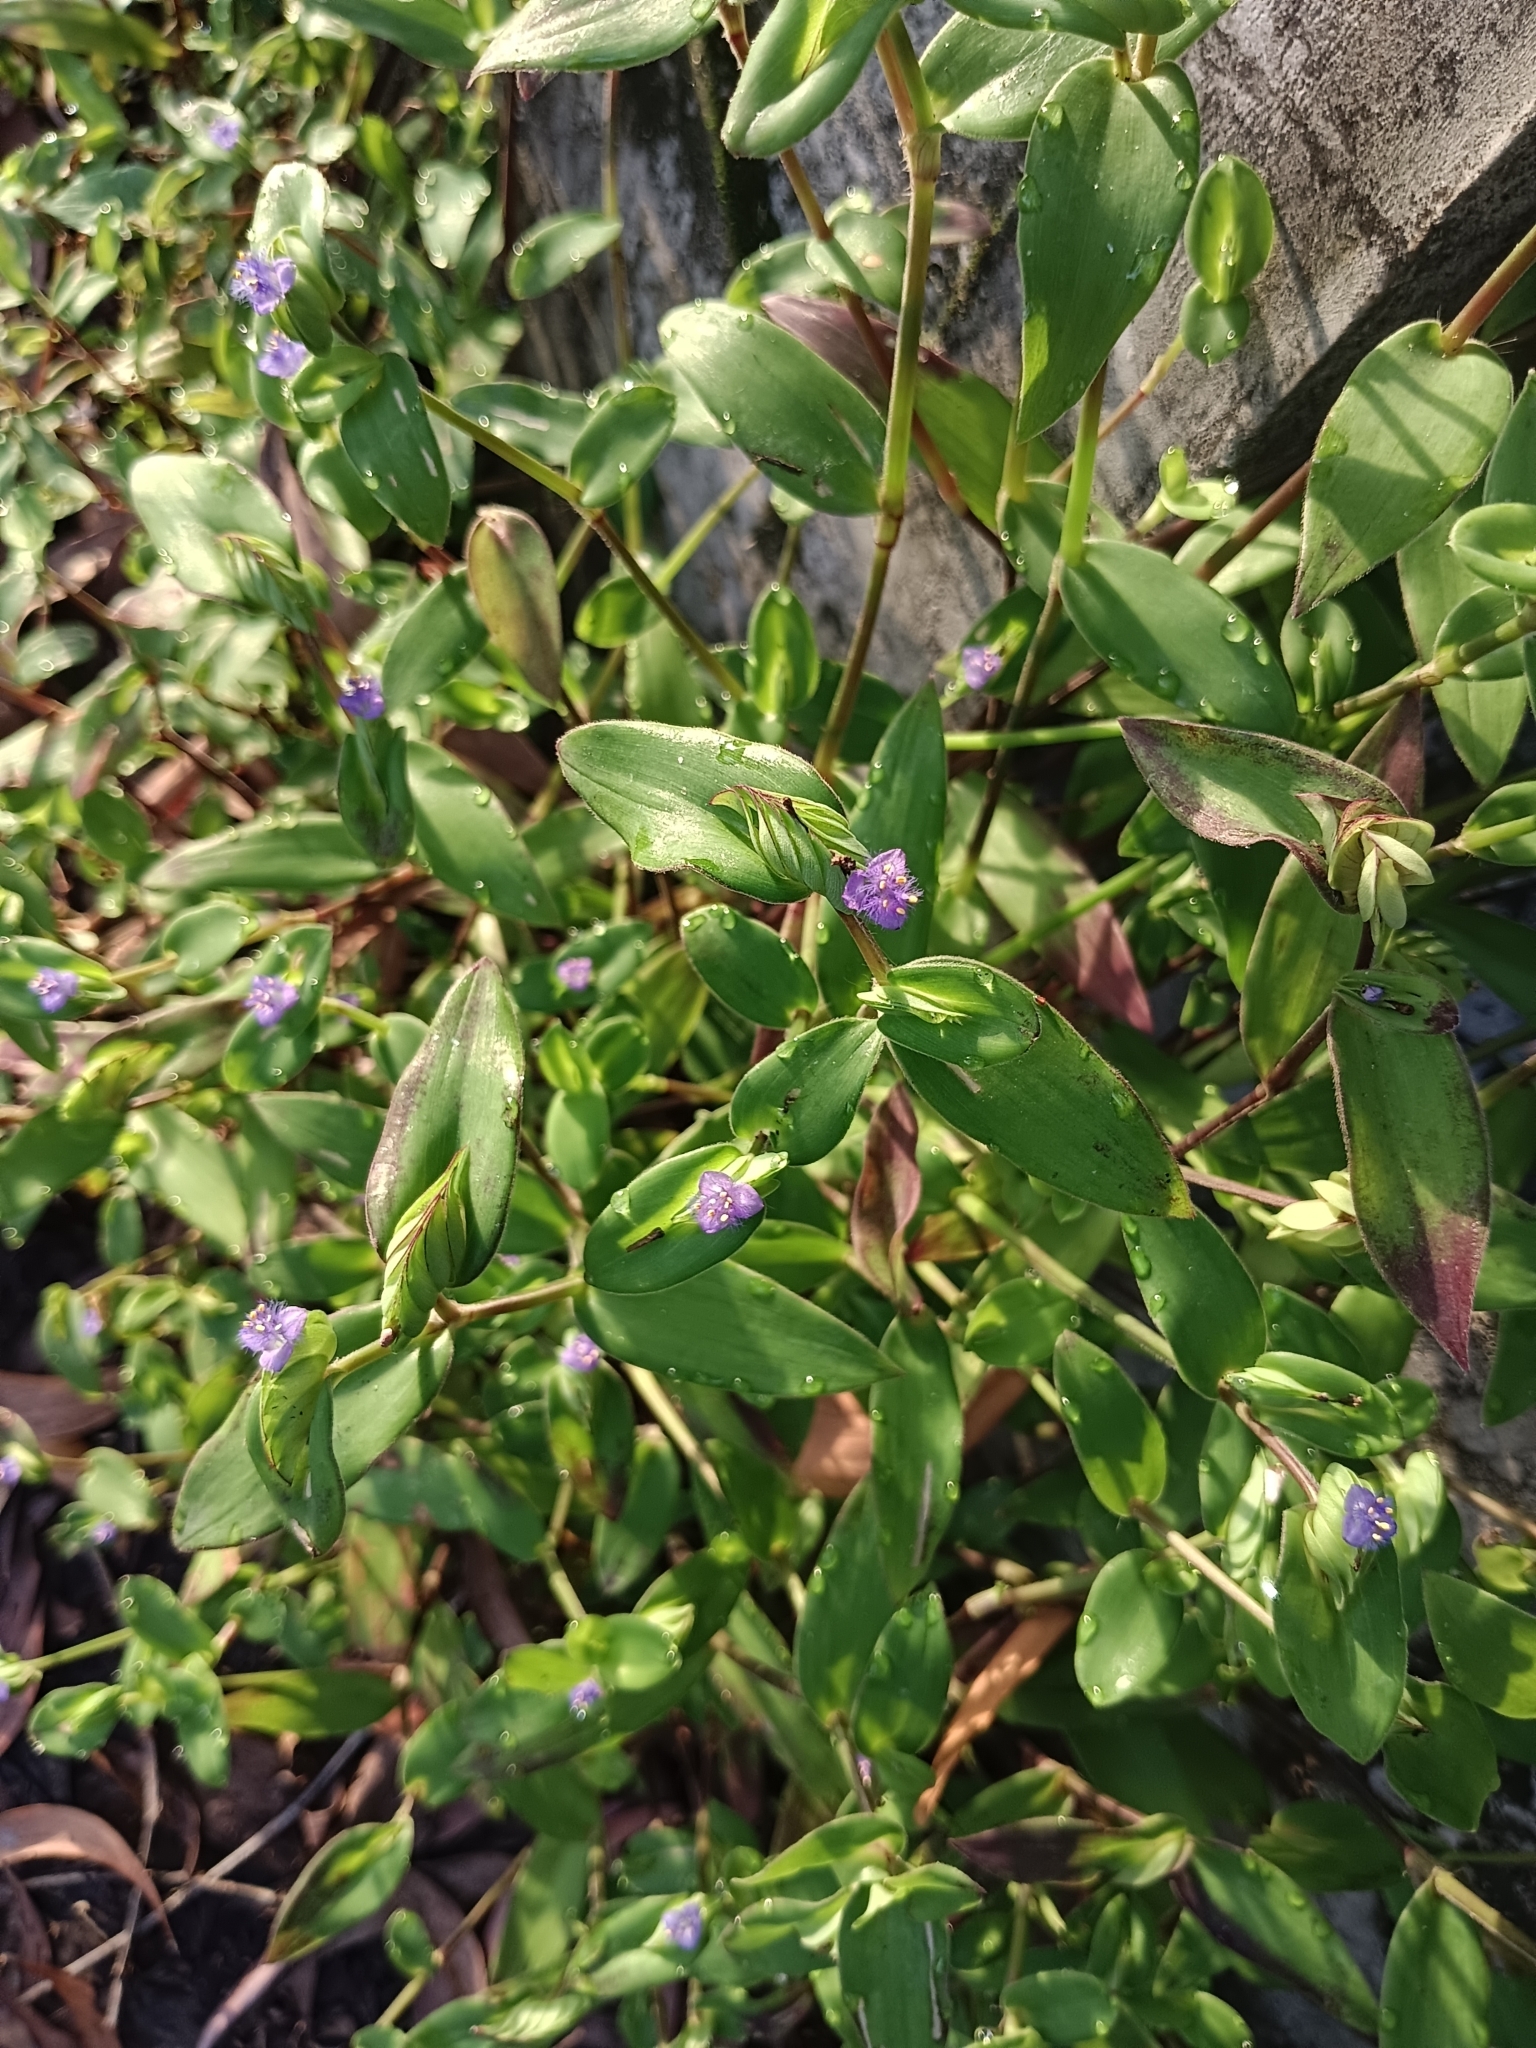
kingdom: Plantae
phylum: Tracheophyta
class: Liliopsida
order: Commelinales
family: Commelinaceae
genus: Cyanotis
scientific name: Cyanotis cristata
